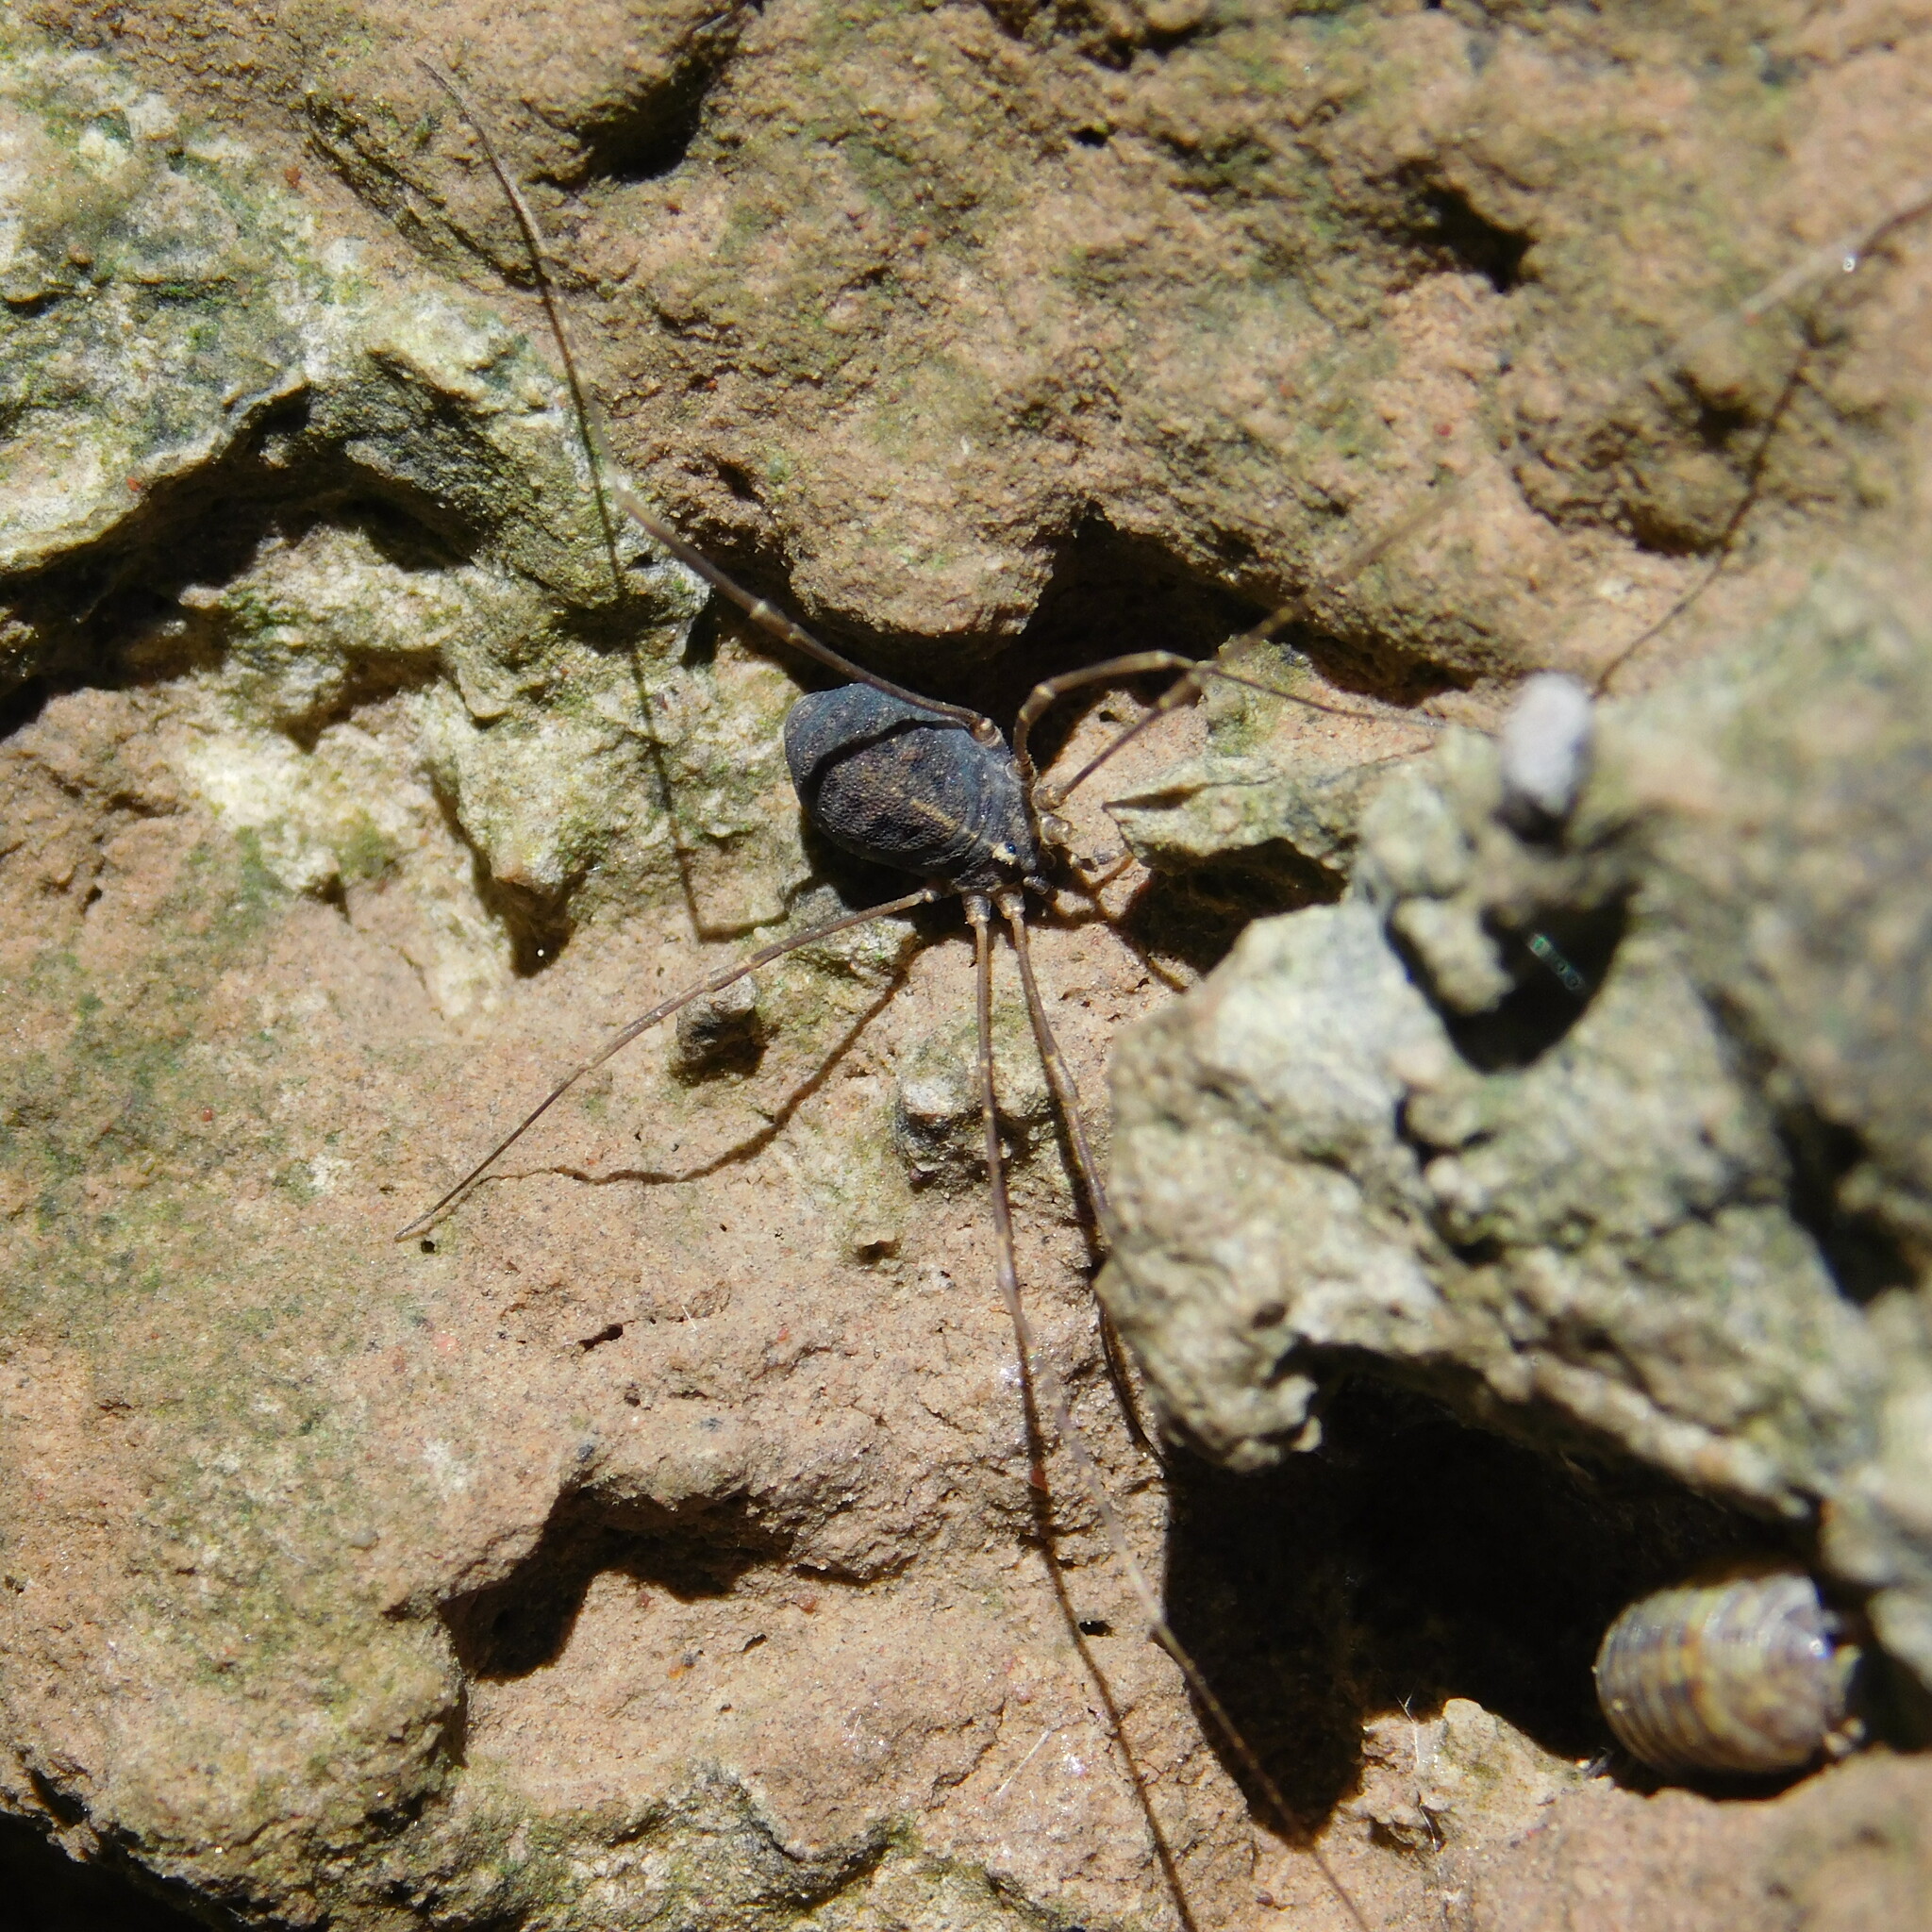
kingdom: Animalia
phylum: Arthropoda
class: Arachnida
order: Opiliones
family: Sclerosomatidae
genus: Holmbergiana
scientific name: Holmbergiana weyenberghii
